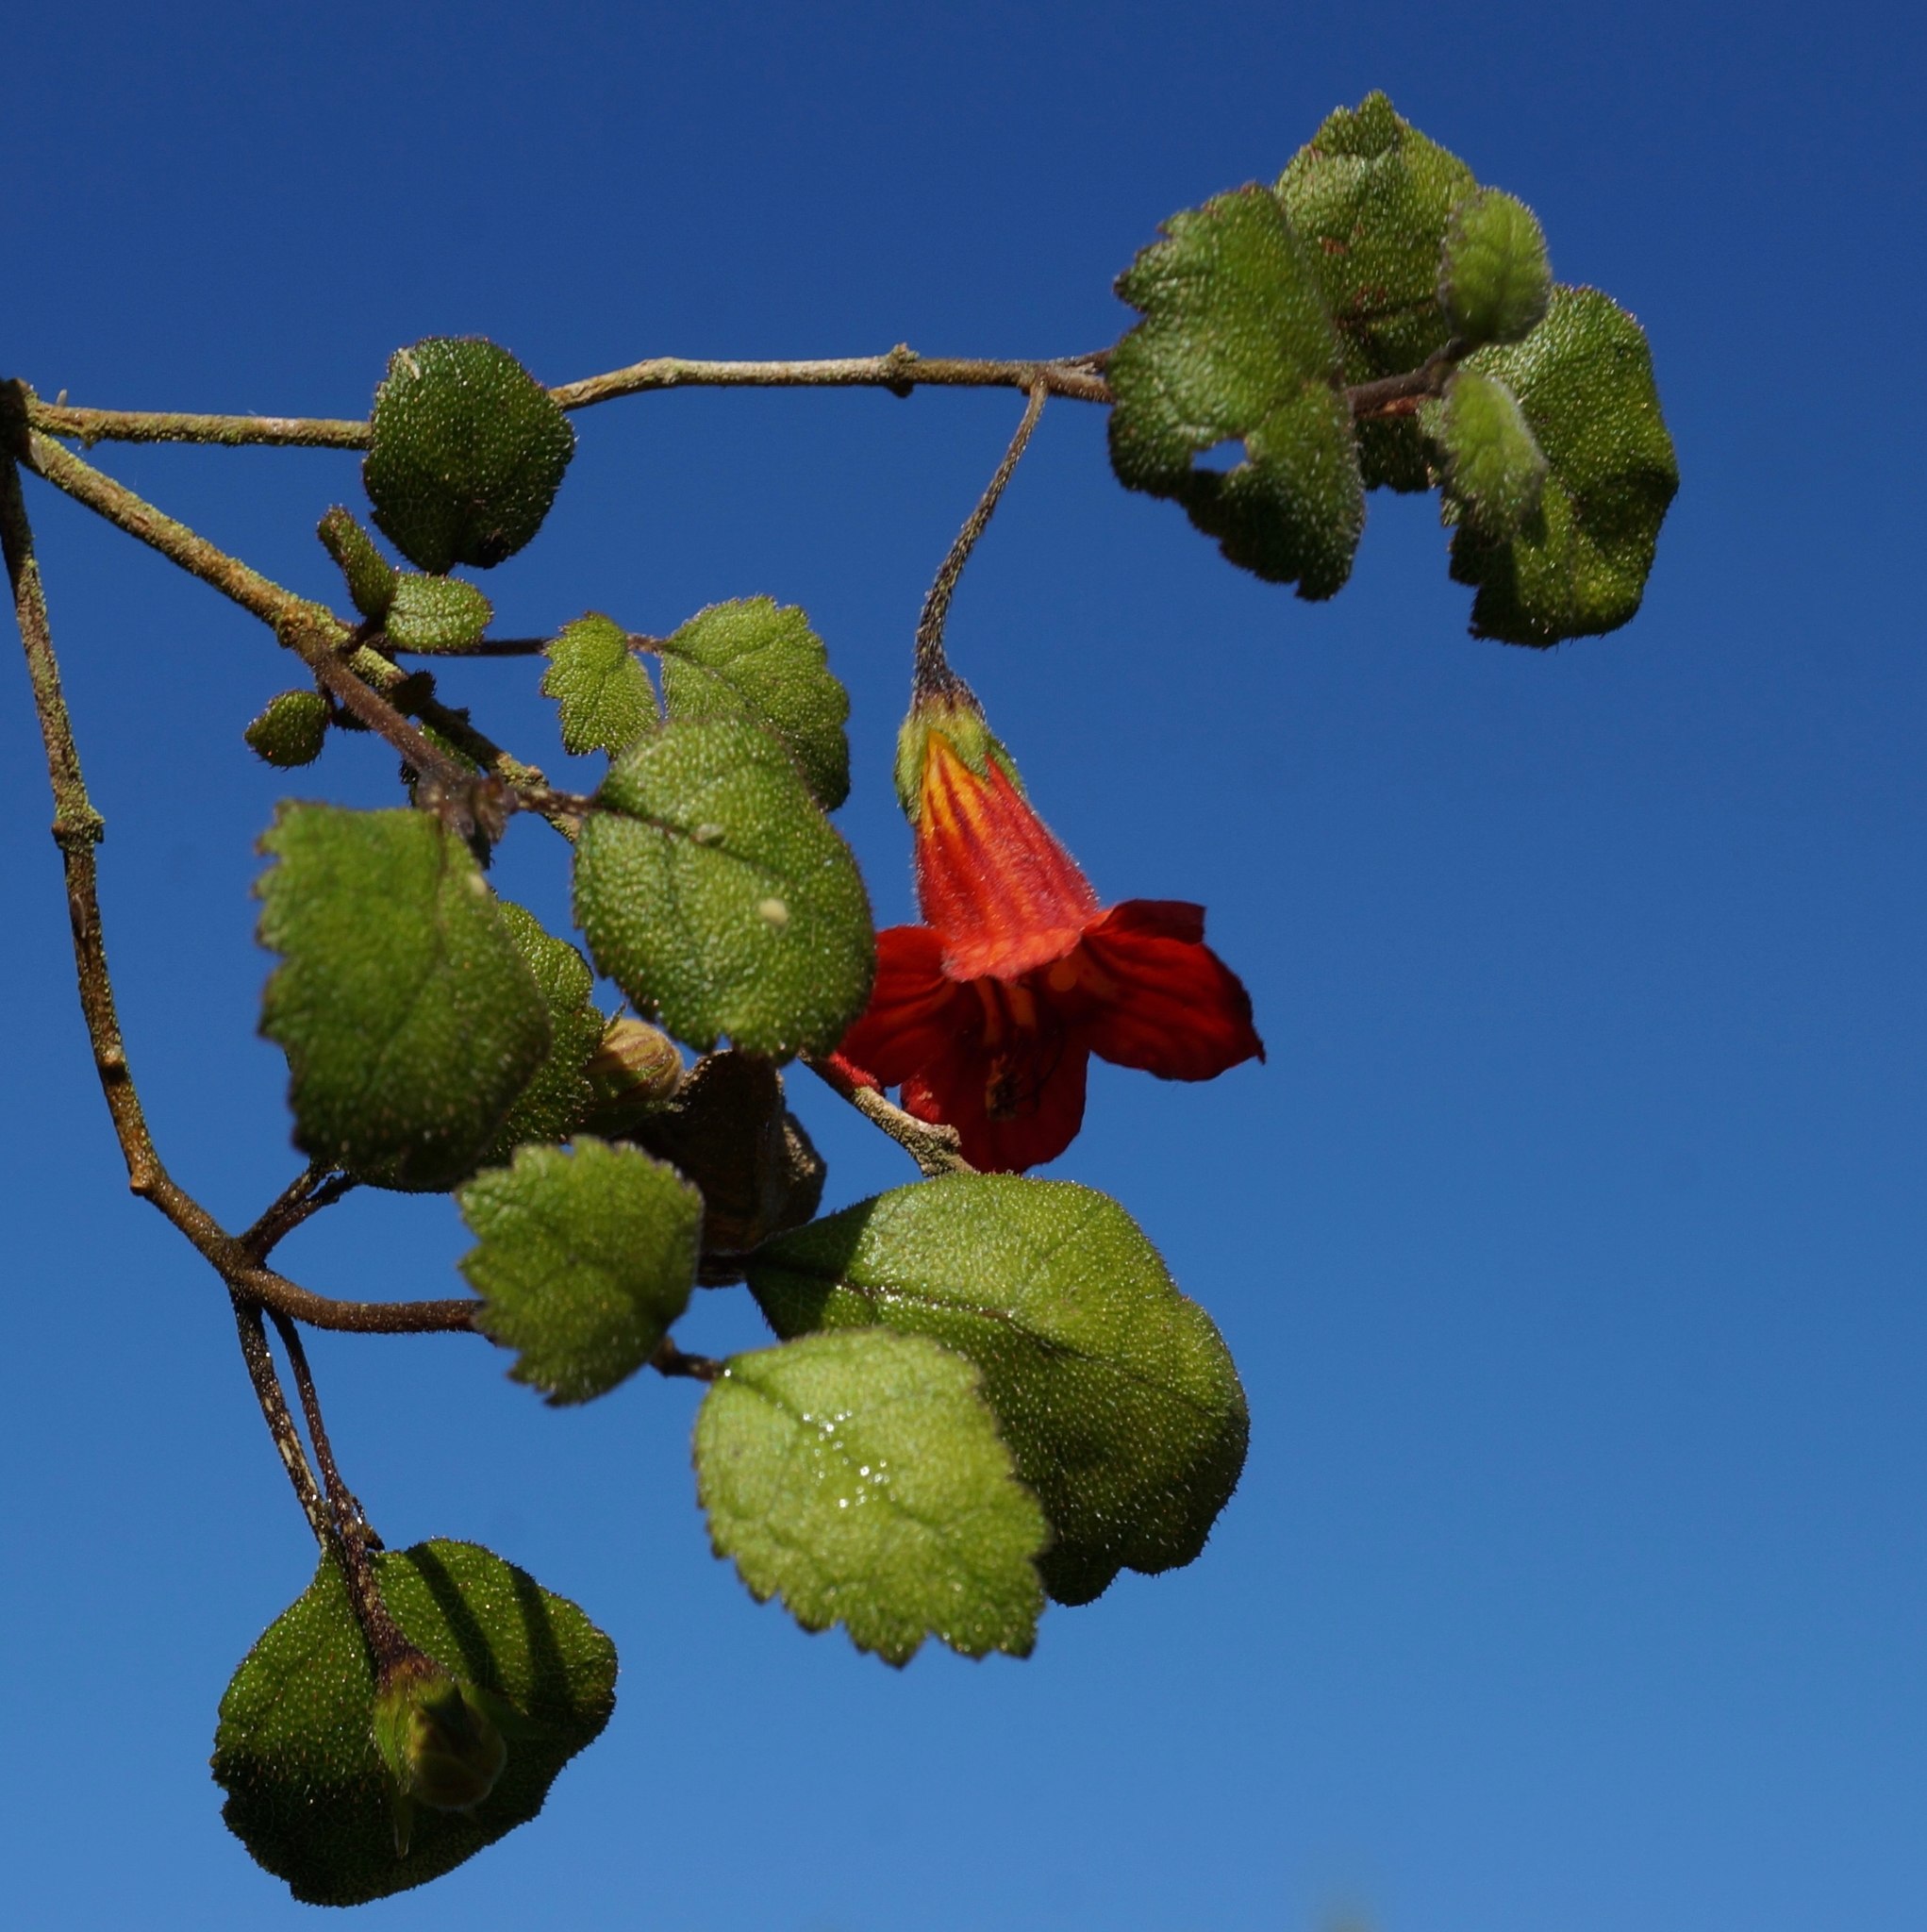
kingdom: Plantae
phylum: Tracheophyta
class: Magnoliopsida
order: Lamiales
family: Gesneriaceae
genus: Rhabdothamnus
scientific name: Rhabdothamnus solandri
